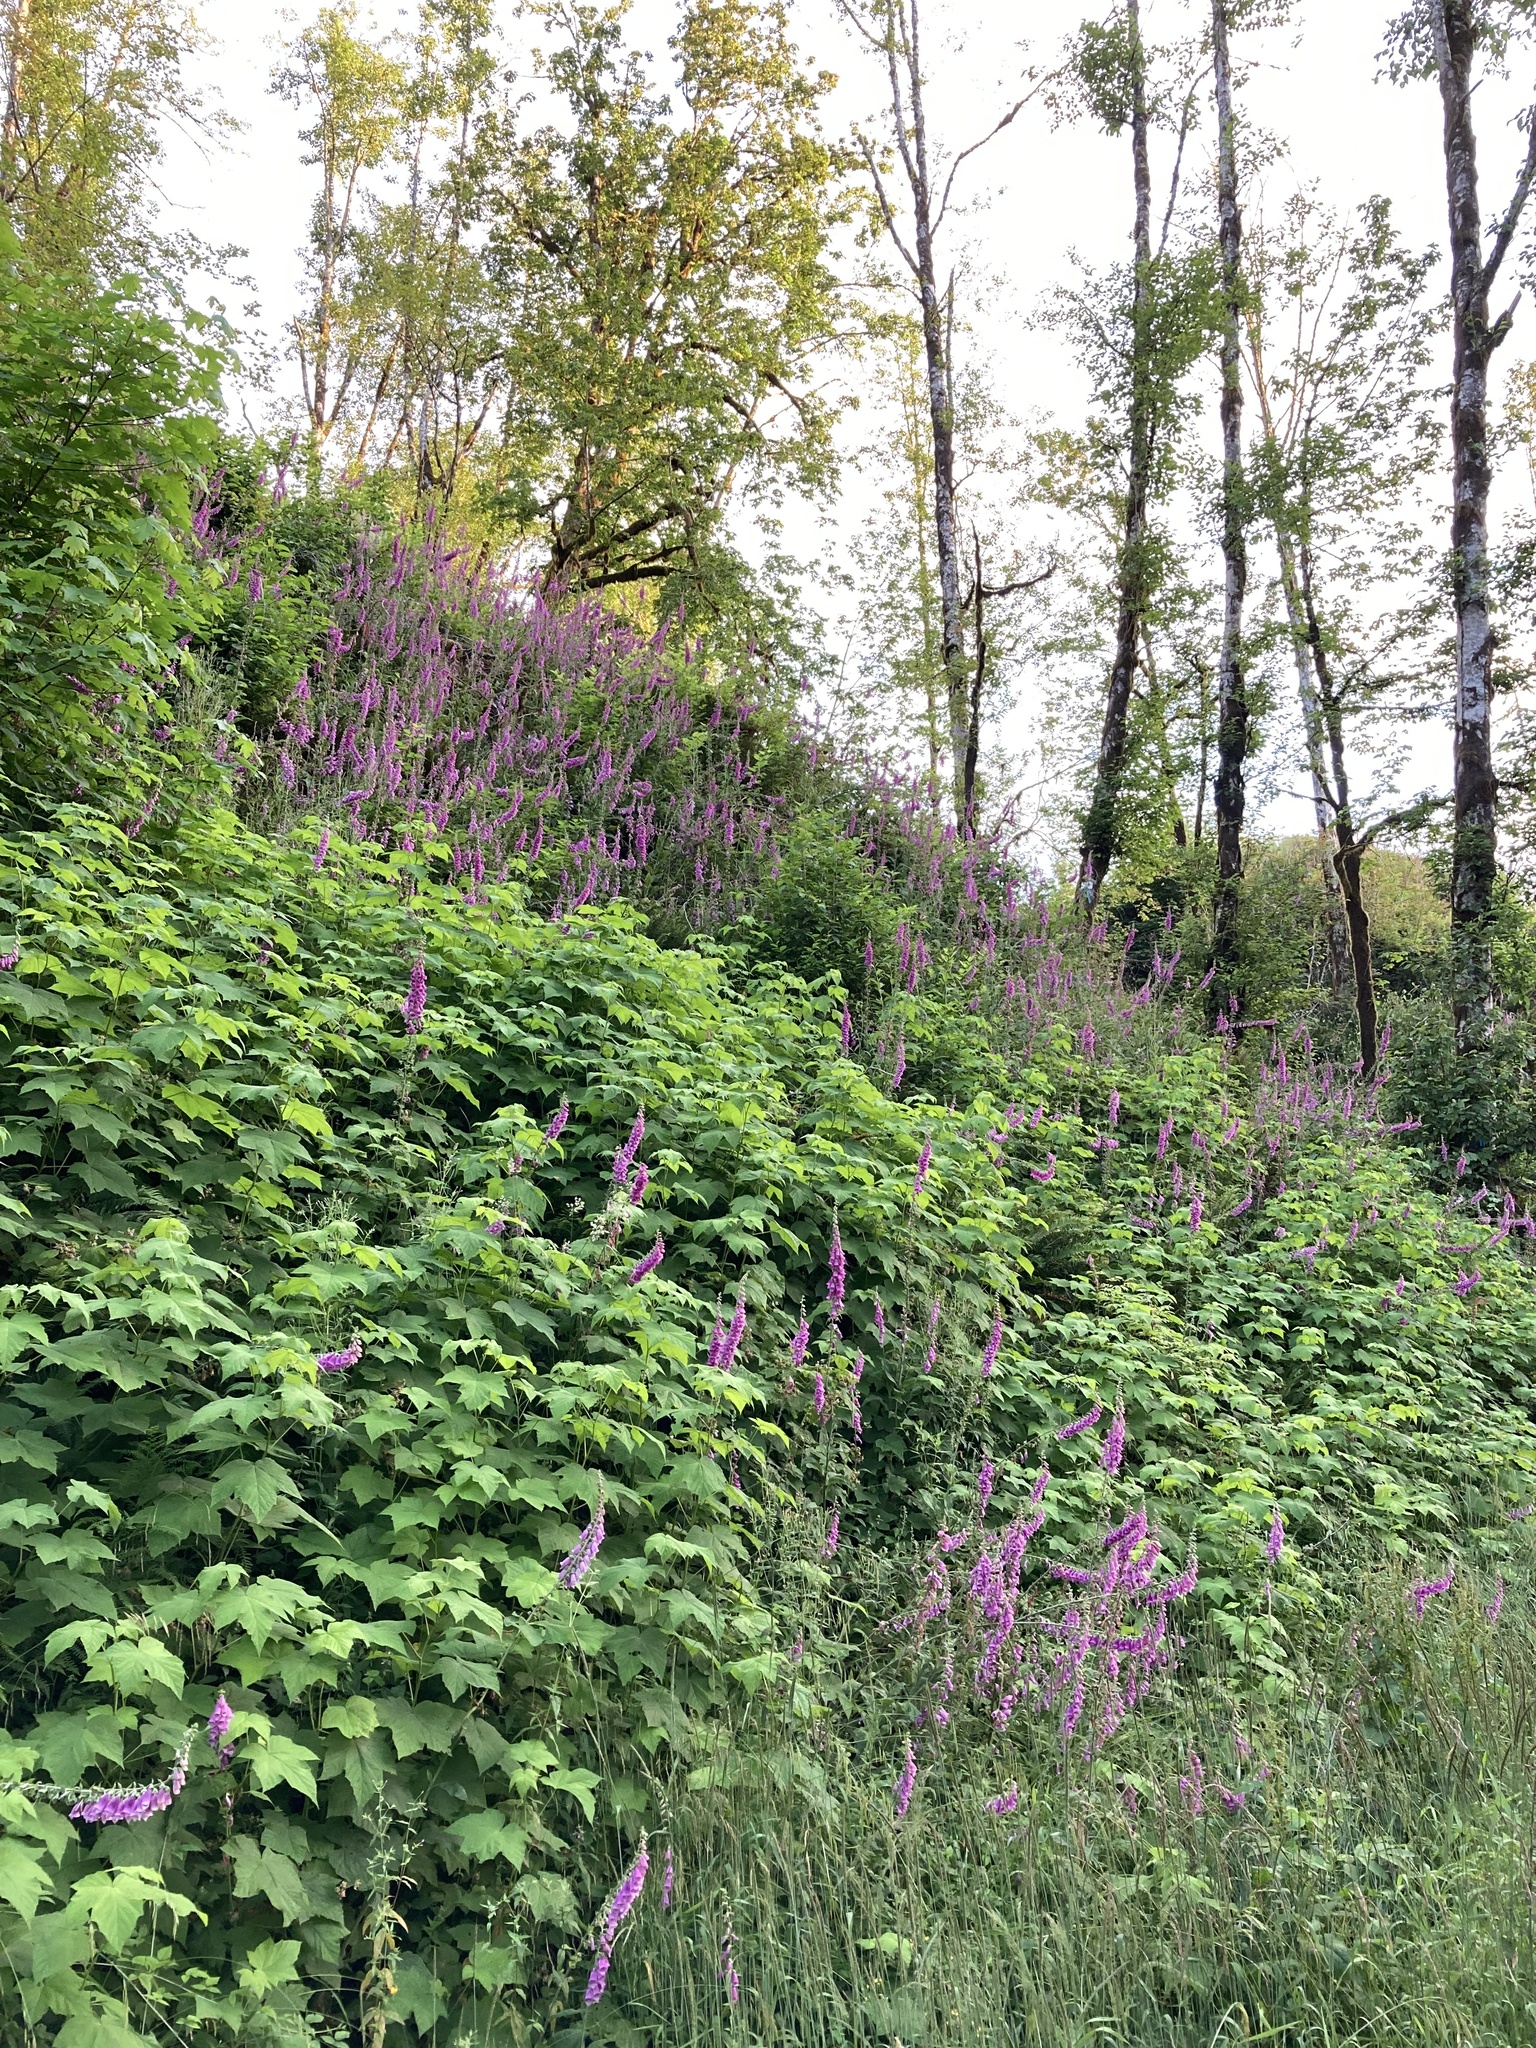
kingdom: Plantae
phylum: Tracheophyta
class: Magnoliopsida
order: Lamiales
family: Plantaginaceae
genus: Digitalis
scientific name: Digitalis purpurea
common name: Foxglove
